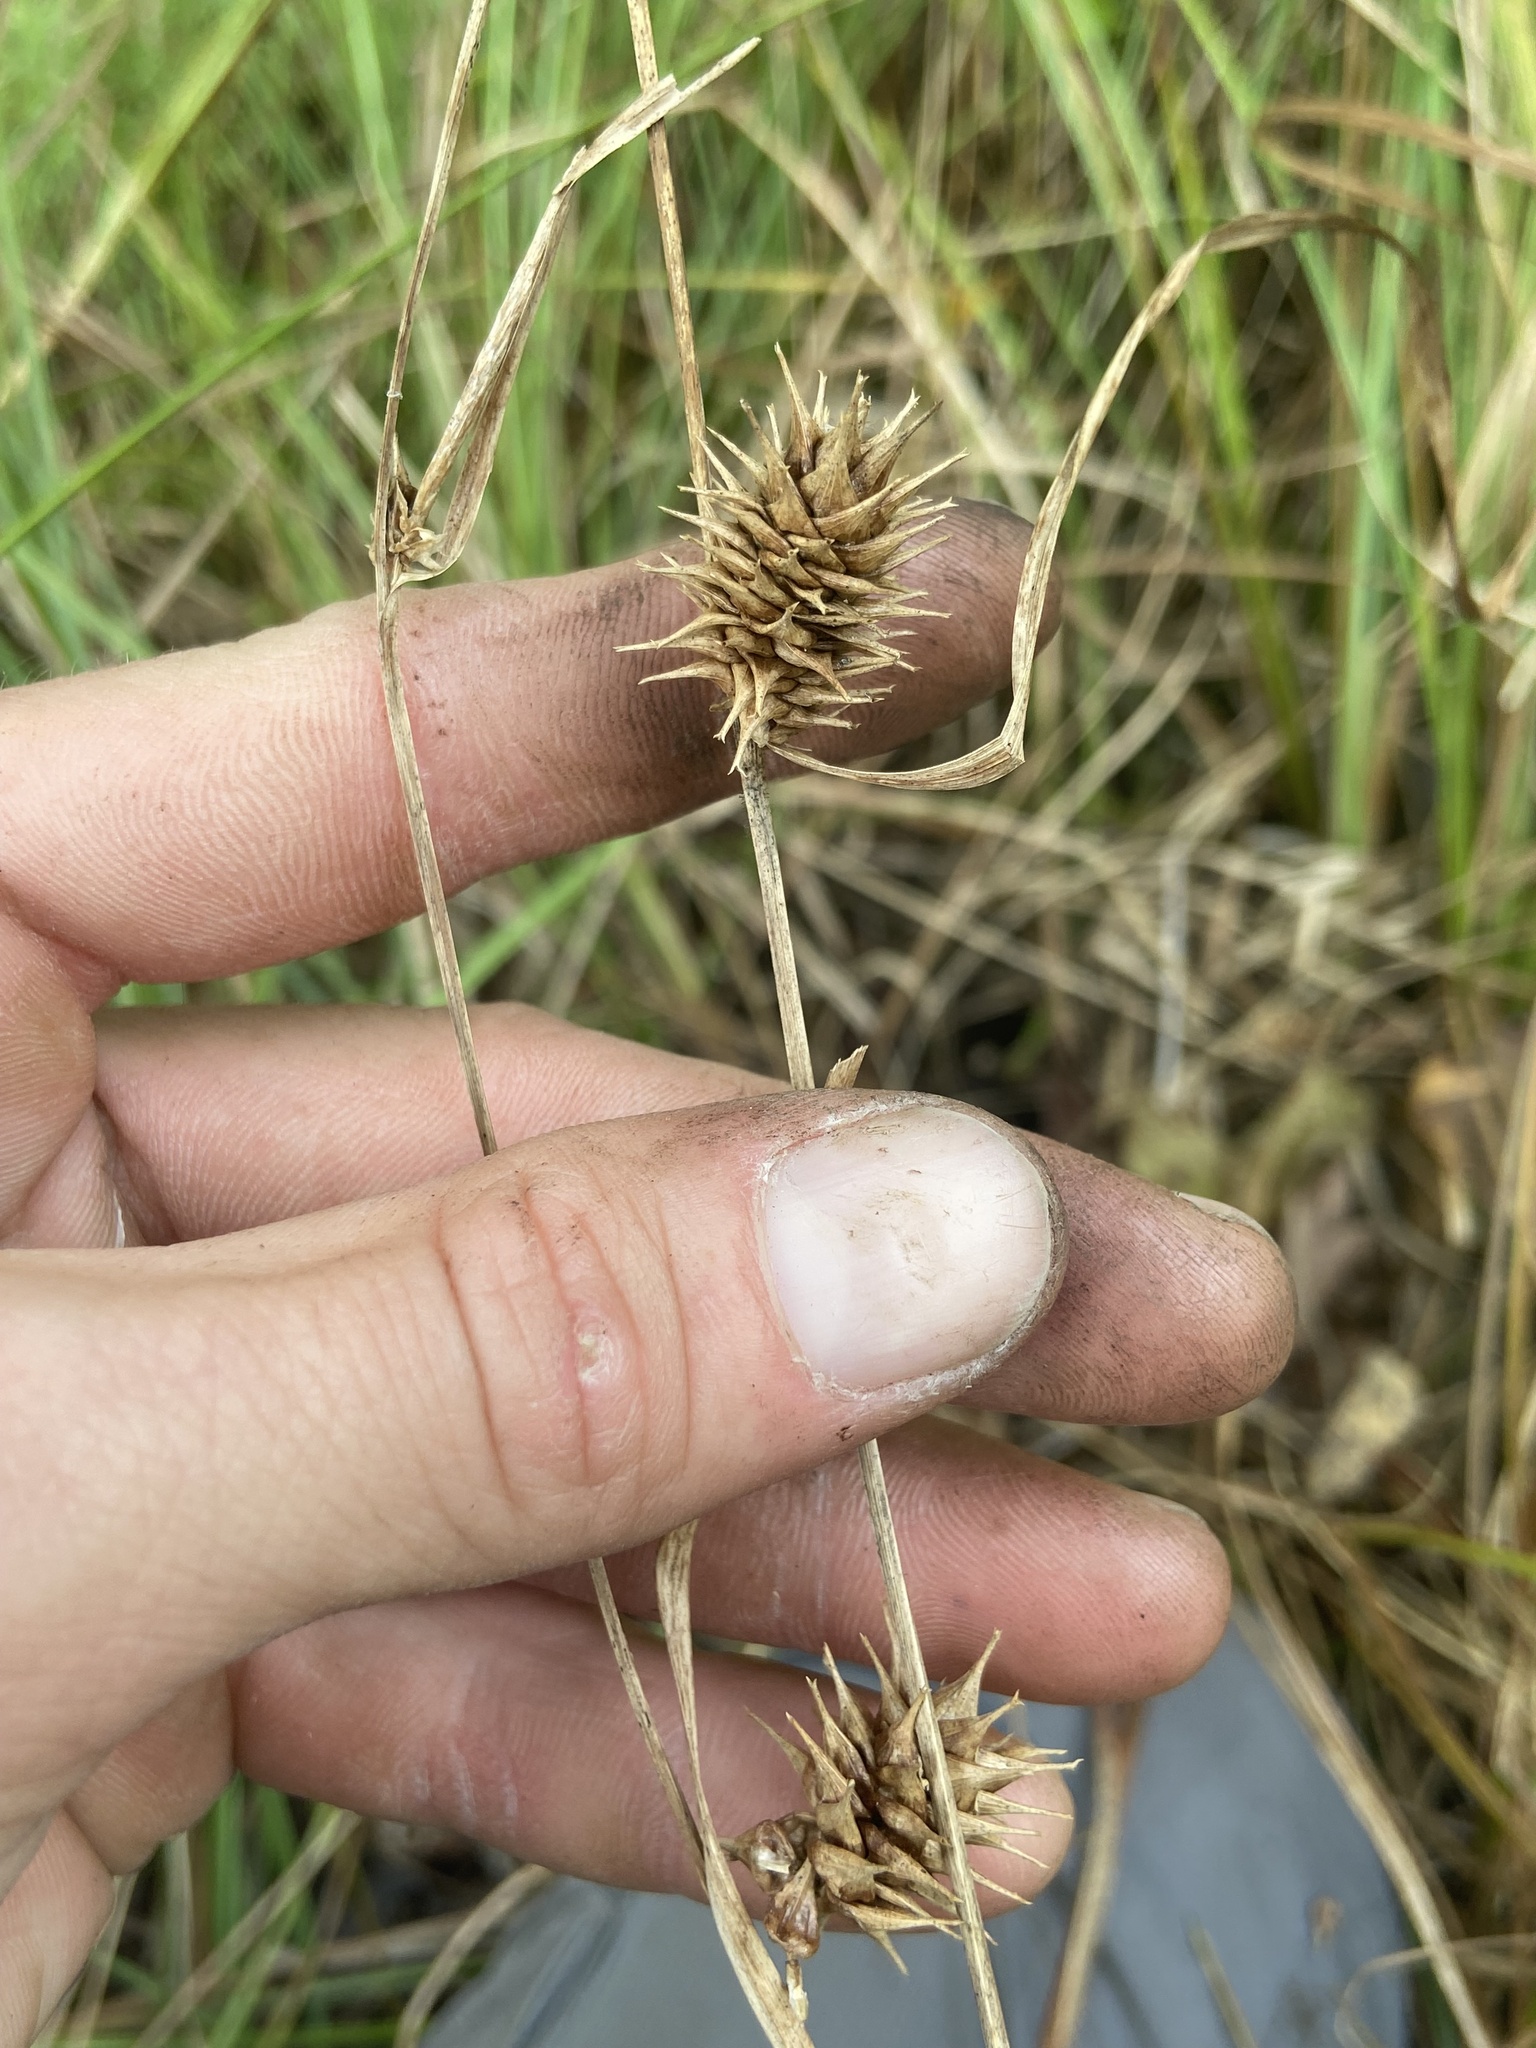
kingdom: Plantae
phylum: Tracheophyta
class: Liliopsida
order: Poales
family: Cyperaceae
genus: Carex
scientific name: Carex bullata
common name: Button sedge
